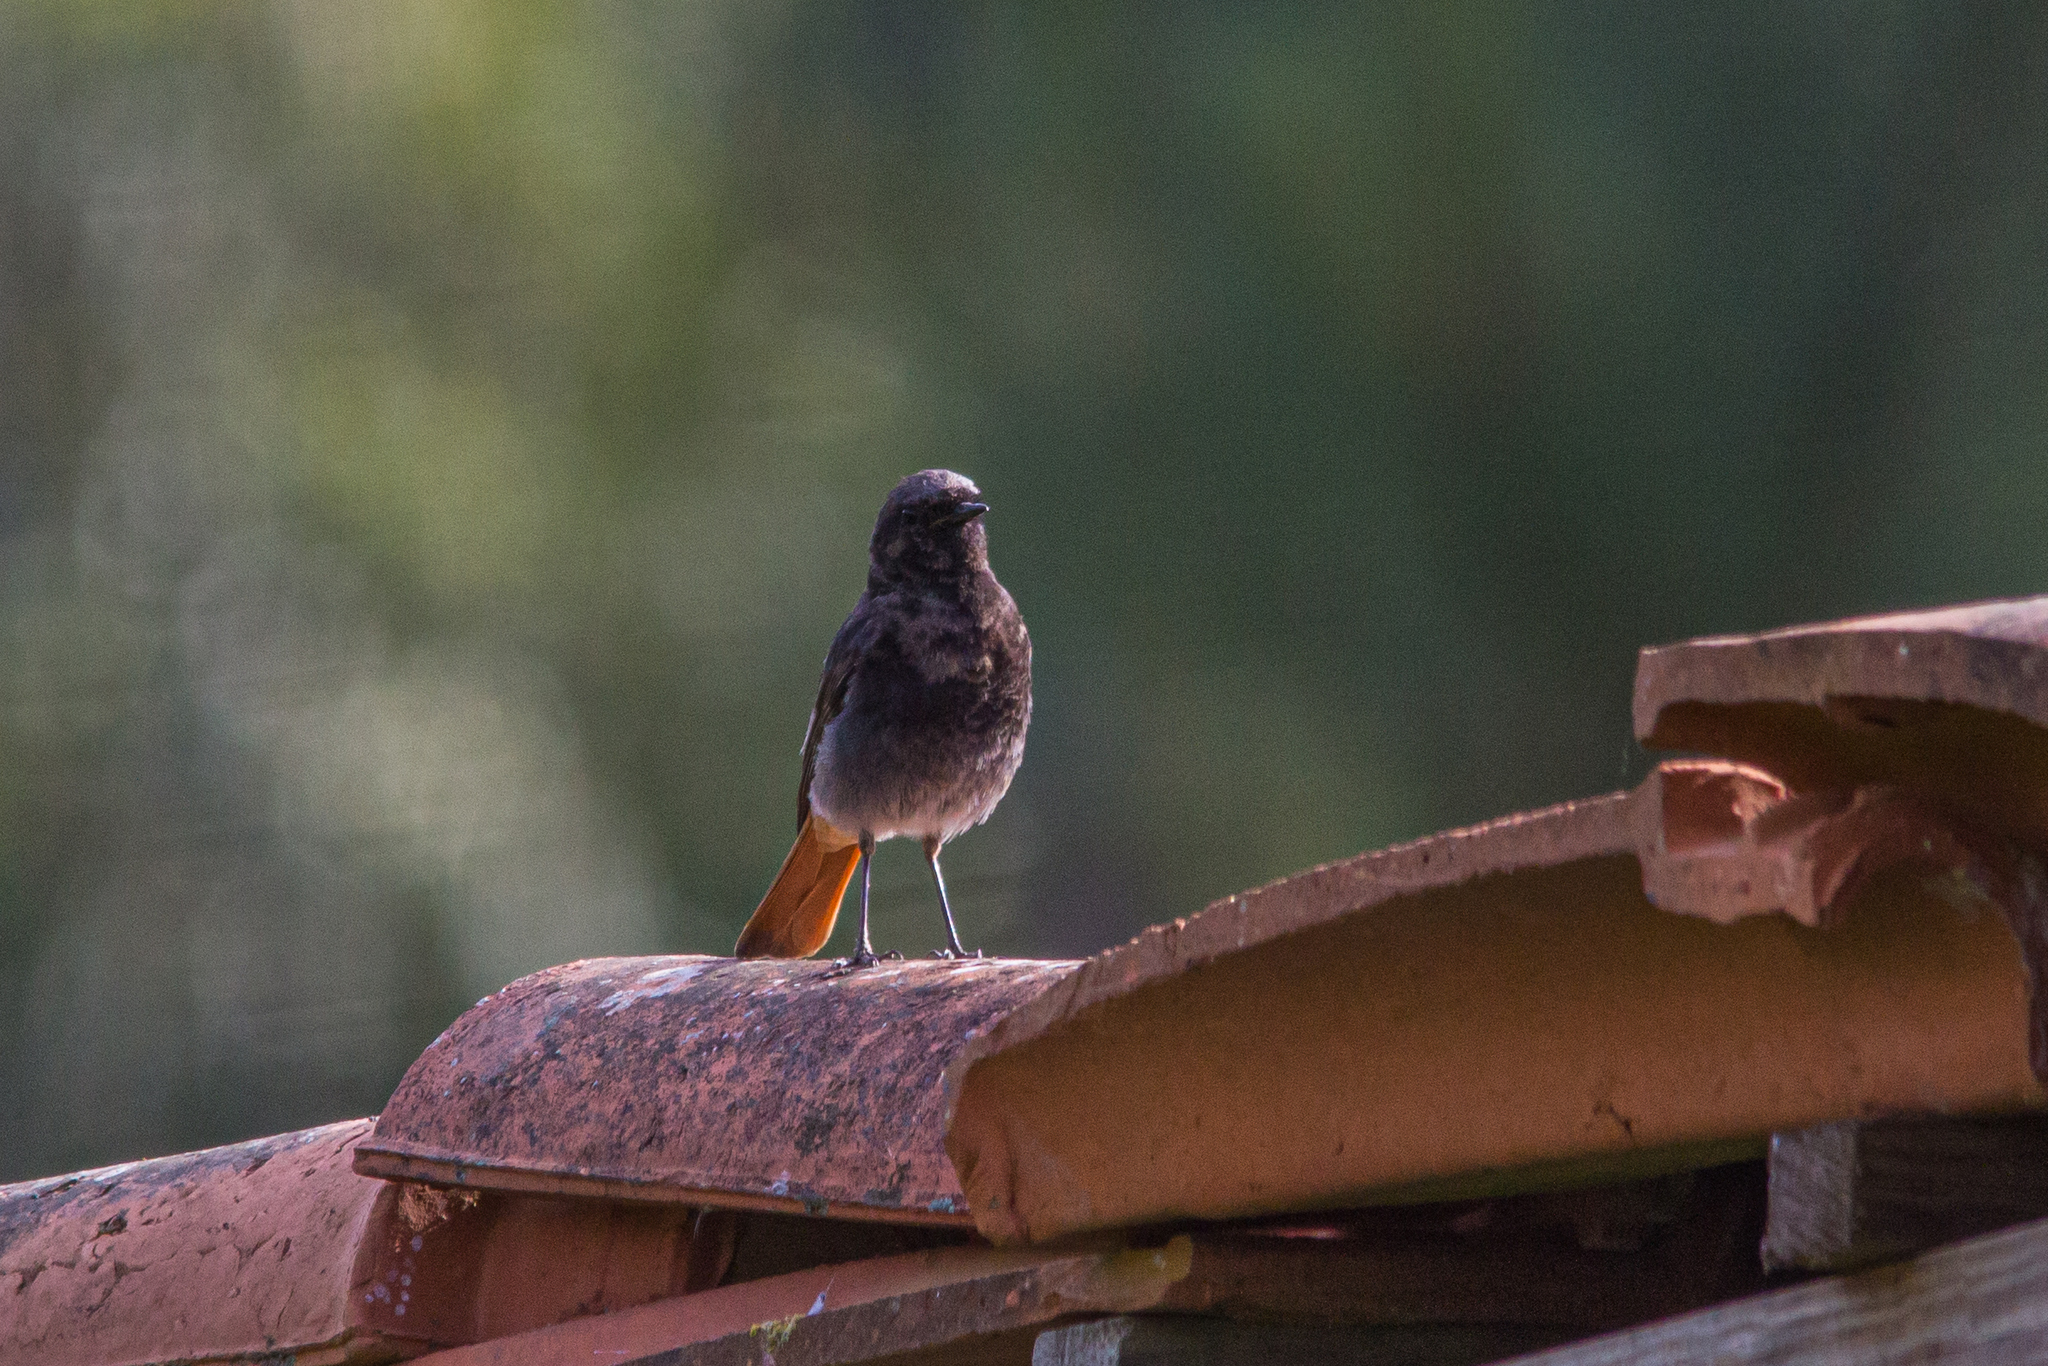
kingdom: Animalia
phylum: Chordata
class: Aves
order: Passeriformes
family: Muscicapidae
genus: Phoenicurus
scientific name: Phoenicurus ochruros
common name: Black redstart
